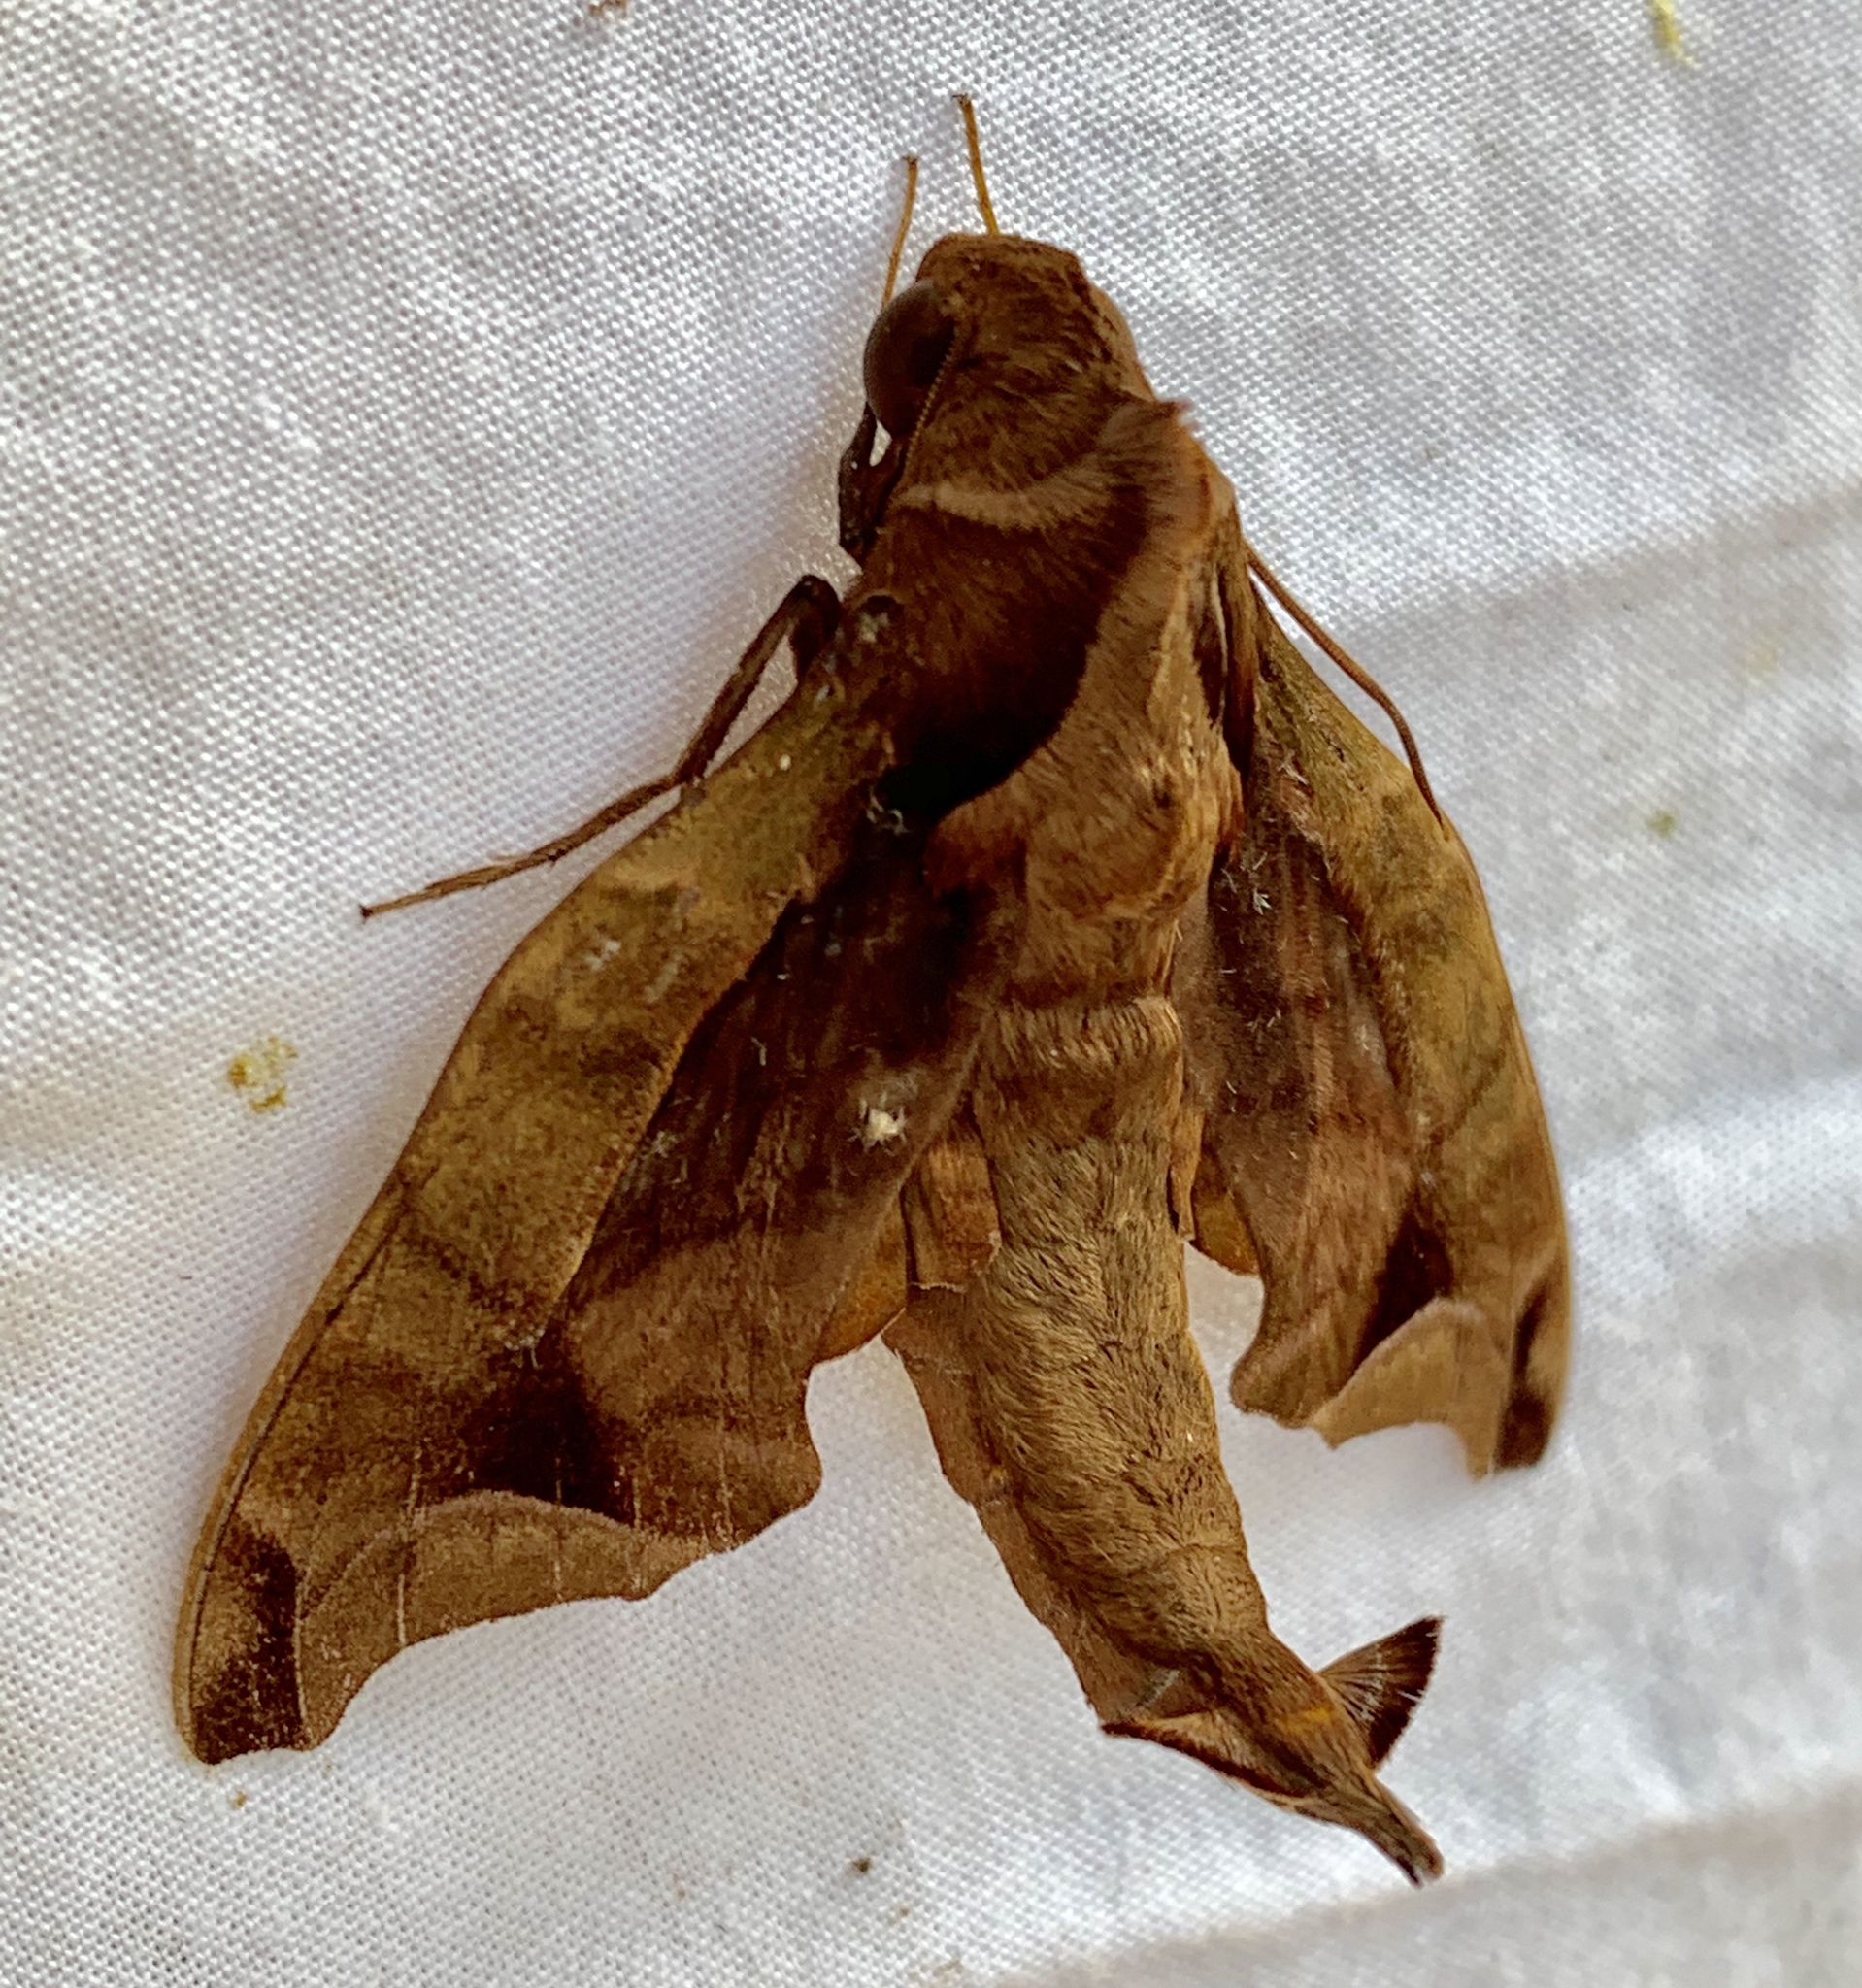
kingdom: Animalia
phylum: Arthropoda
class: Insecta
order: Lepidoptera
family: Sphingidae
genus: Enyo
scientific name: Enyo gorgon
